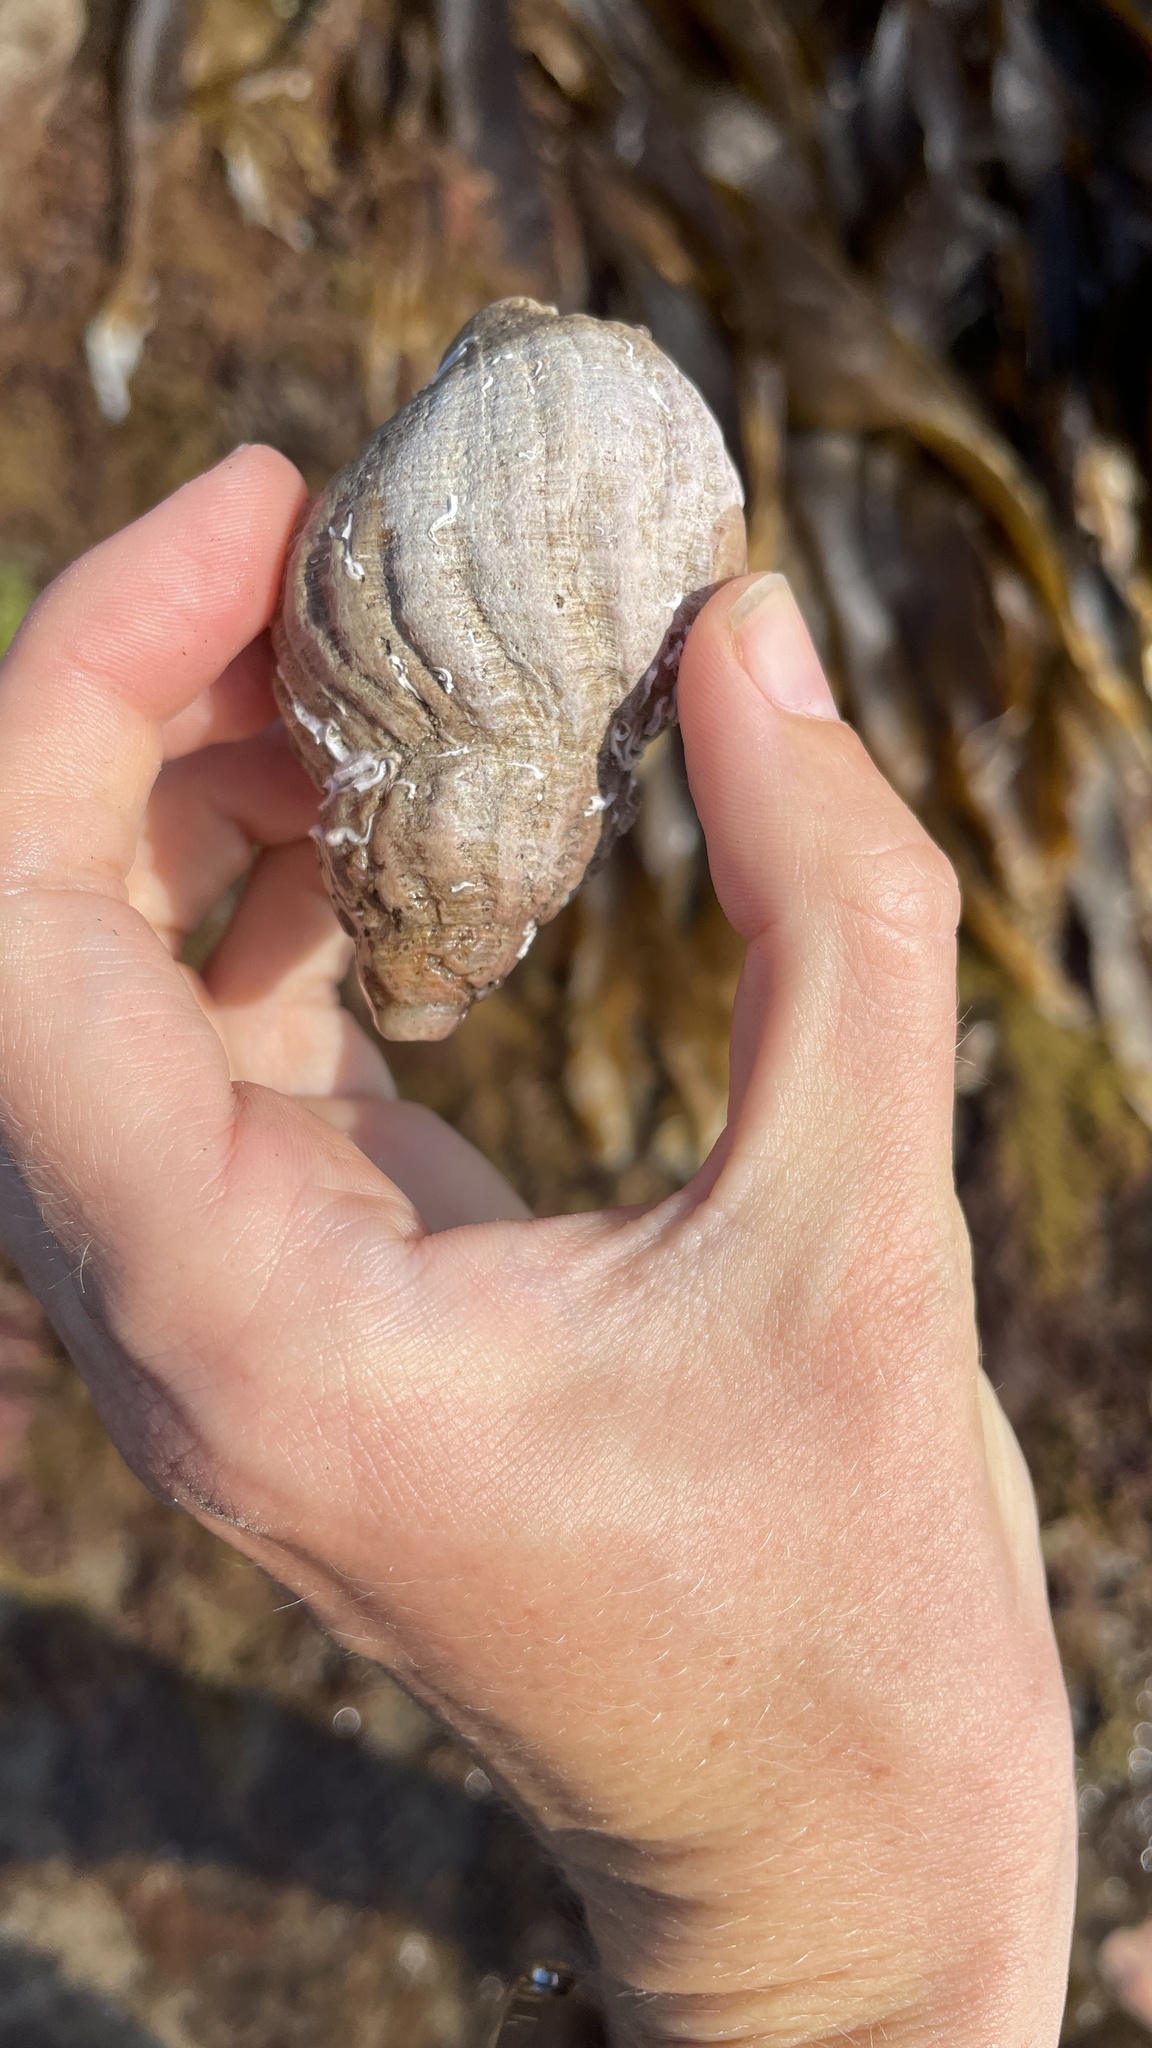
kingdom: Animalia
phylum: Mollusca
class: Gastropoda
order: Neogastropoda
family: Buccinidae
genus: Buccinum
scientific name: Buccinum undatum
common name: Common whelk
